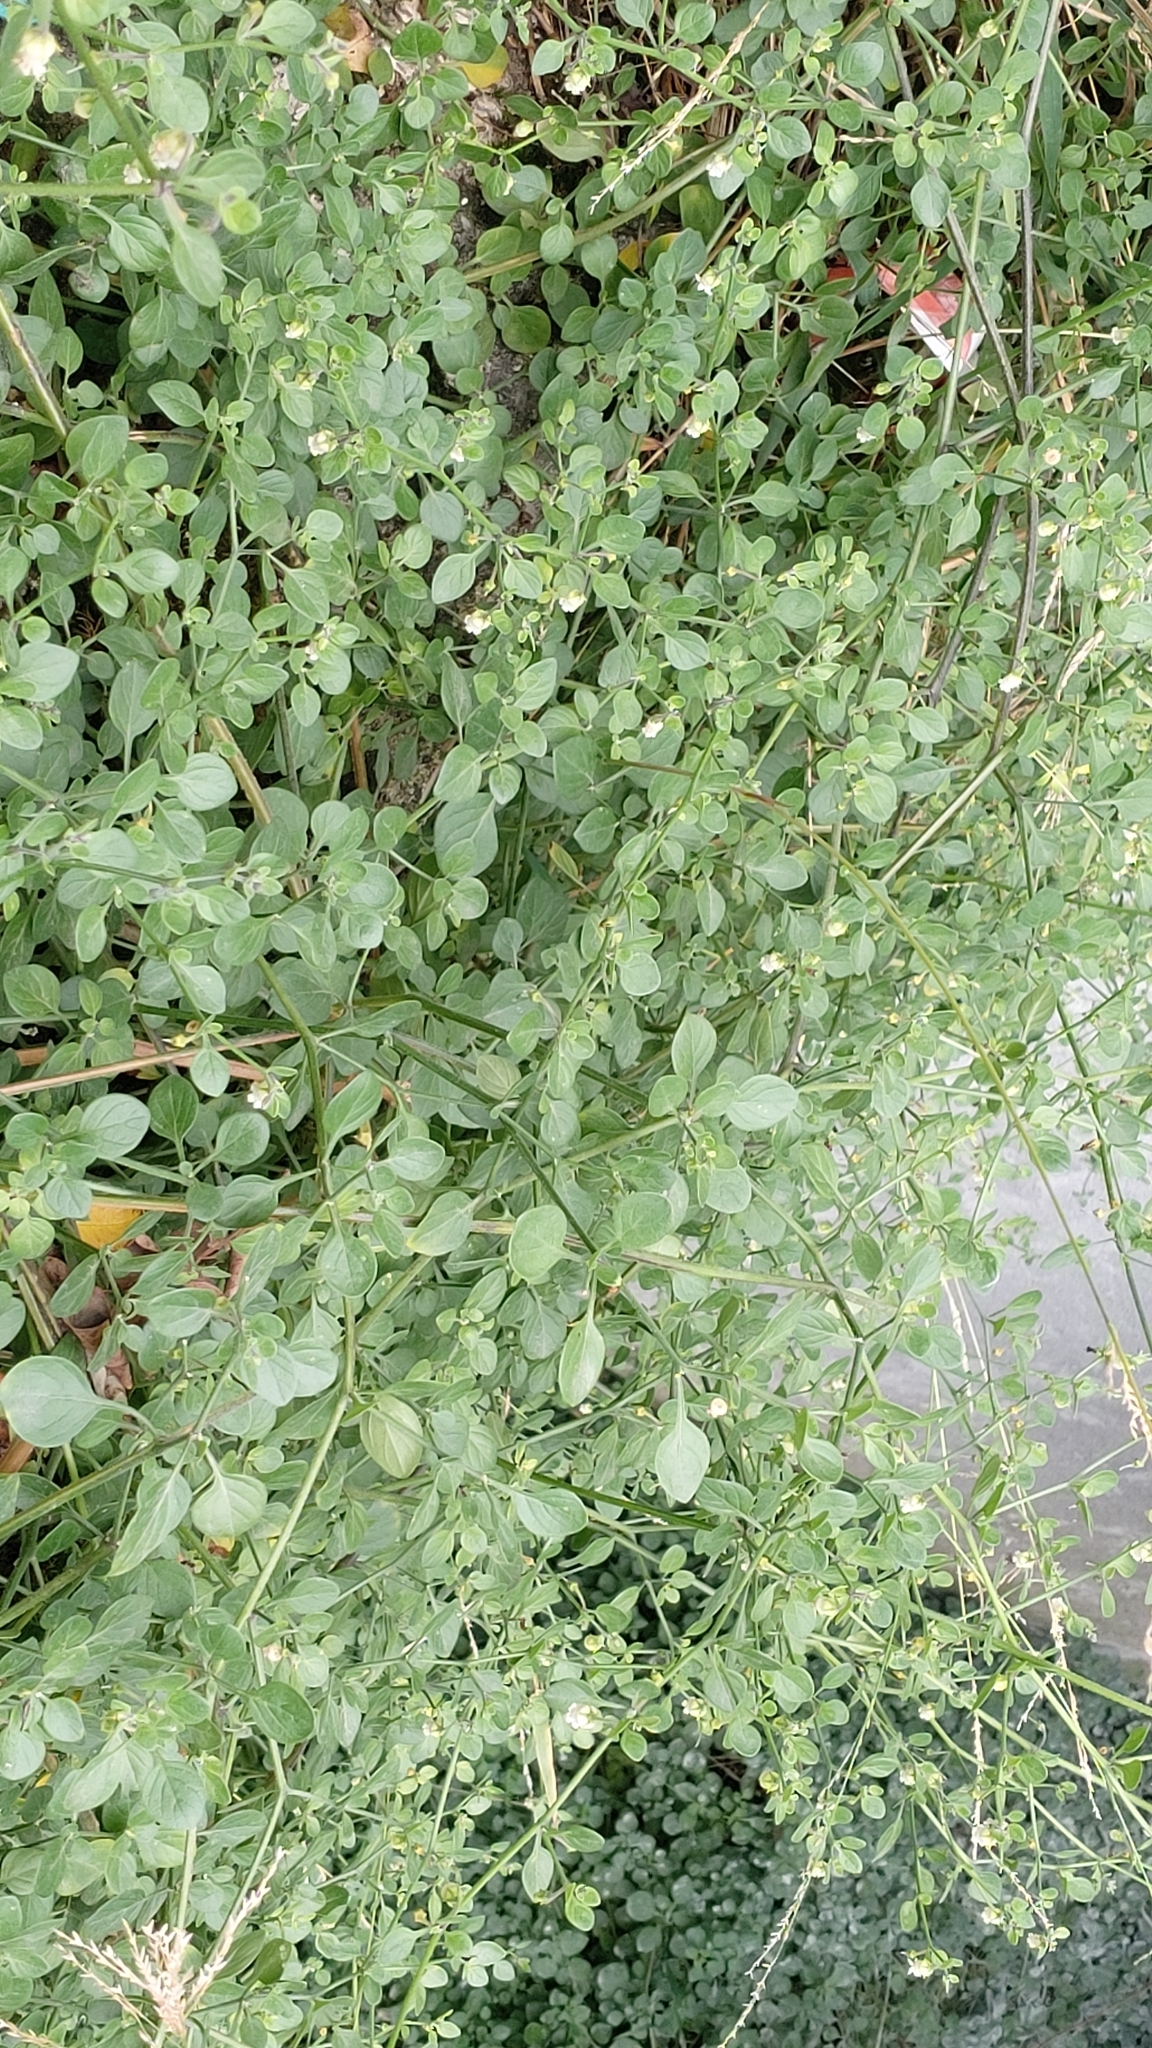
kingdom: Plantae
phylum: Tracheophyta
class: Magnoliopsida
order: Solanales
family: Solanaceae
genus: Salpichroa
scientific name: Salpichroa origanifolia
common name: Lily-of-the-valley-vine
